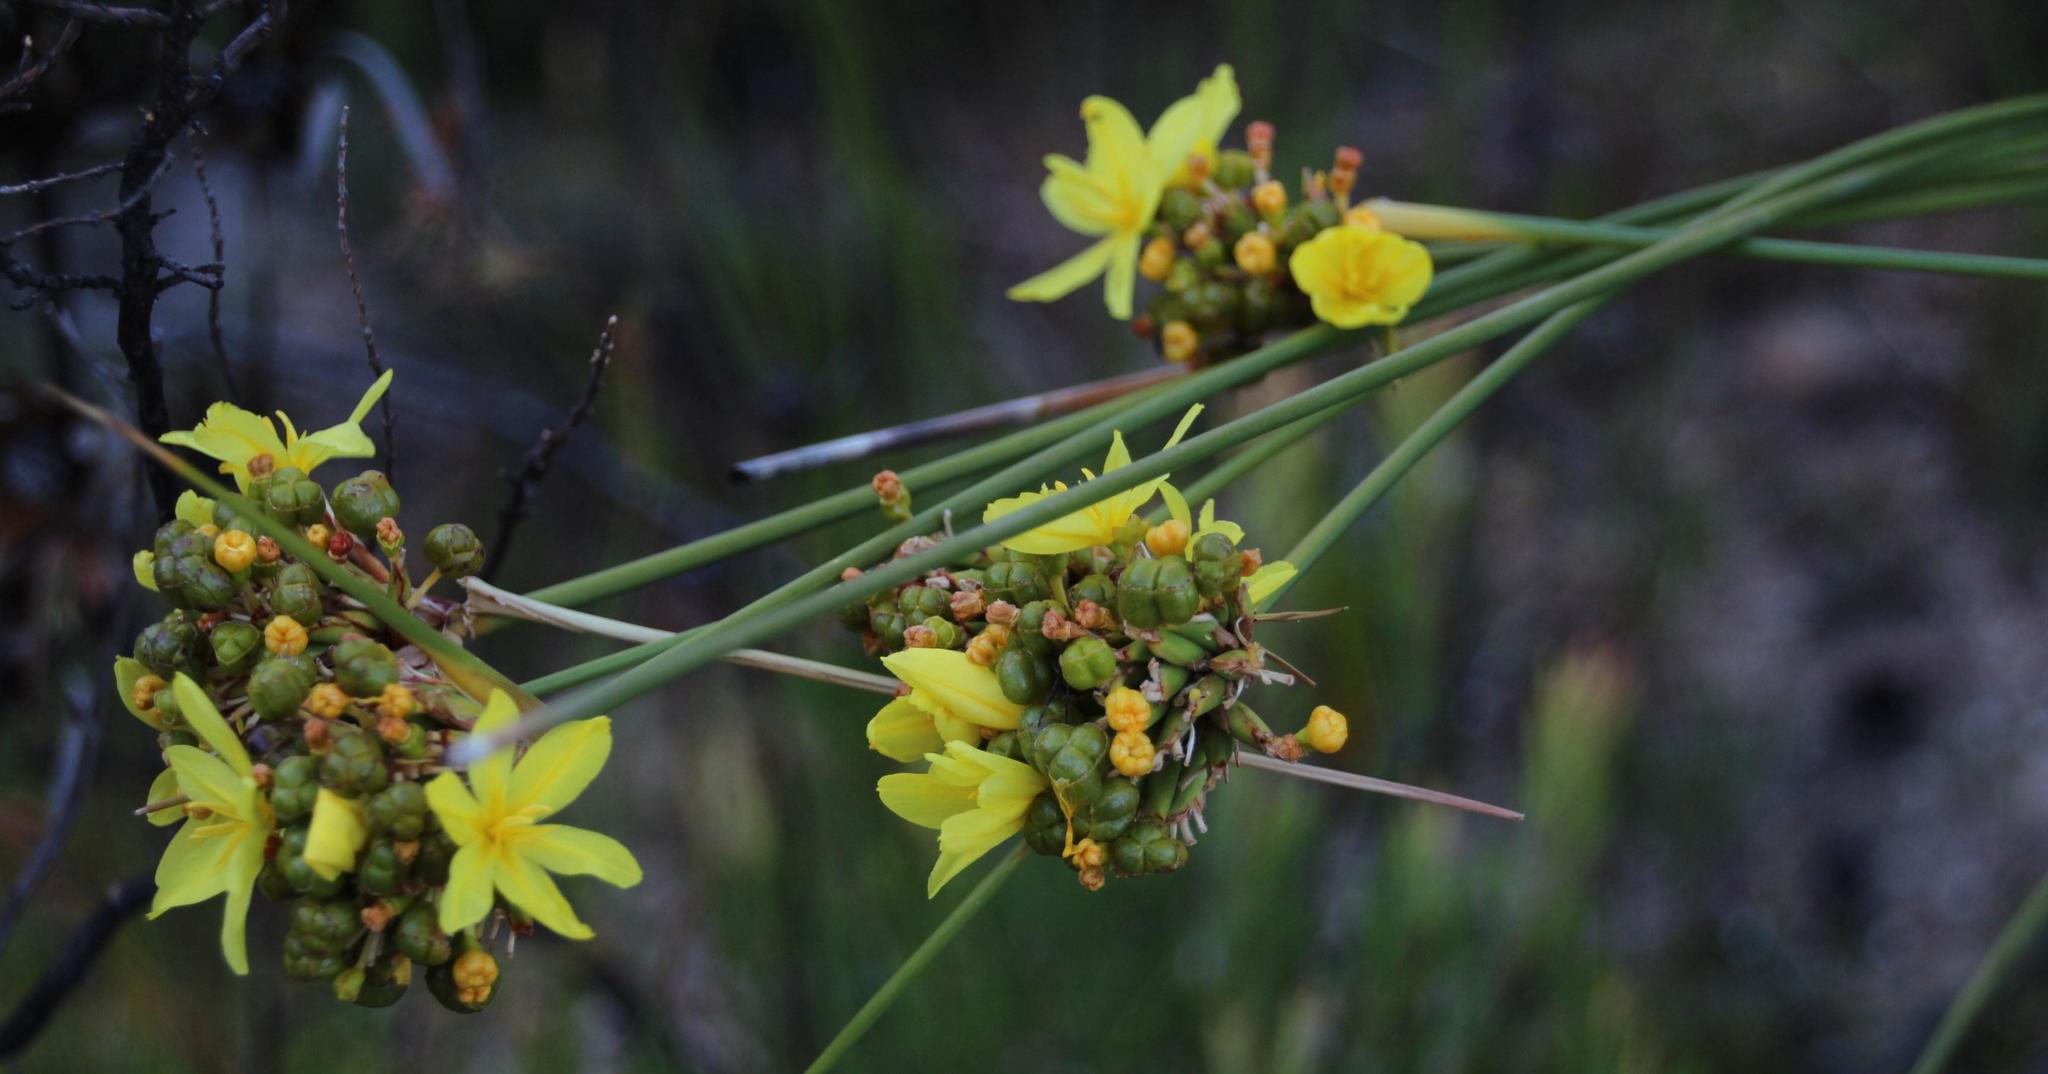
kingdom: Plantae
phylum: Tracheophyta
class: Liliopsida
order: Asparagales
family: Iridaceae
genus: Bobartia
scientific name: Bobartia indica
